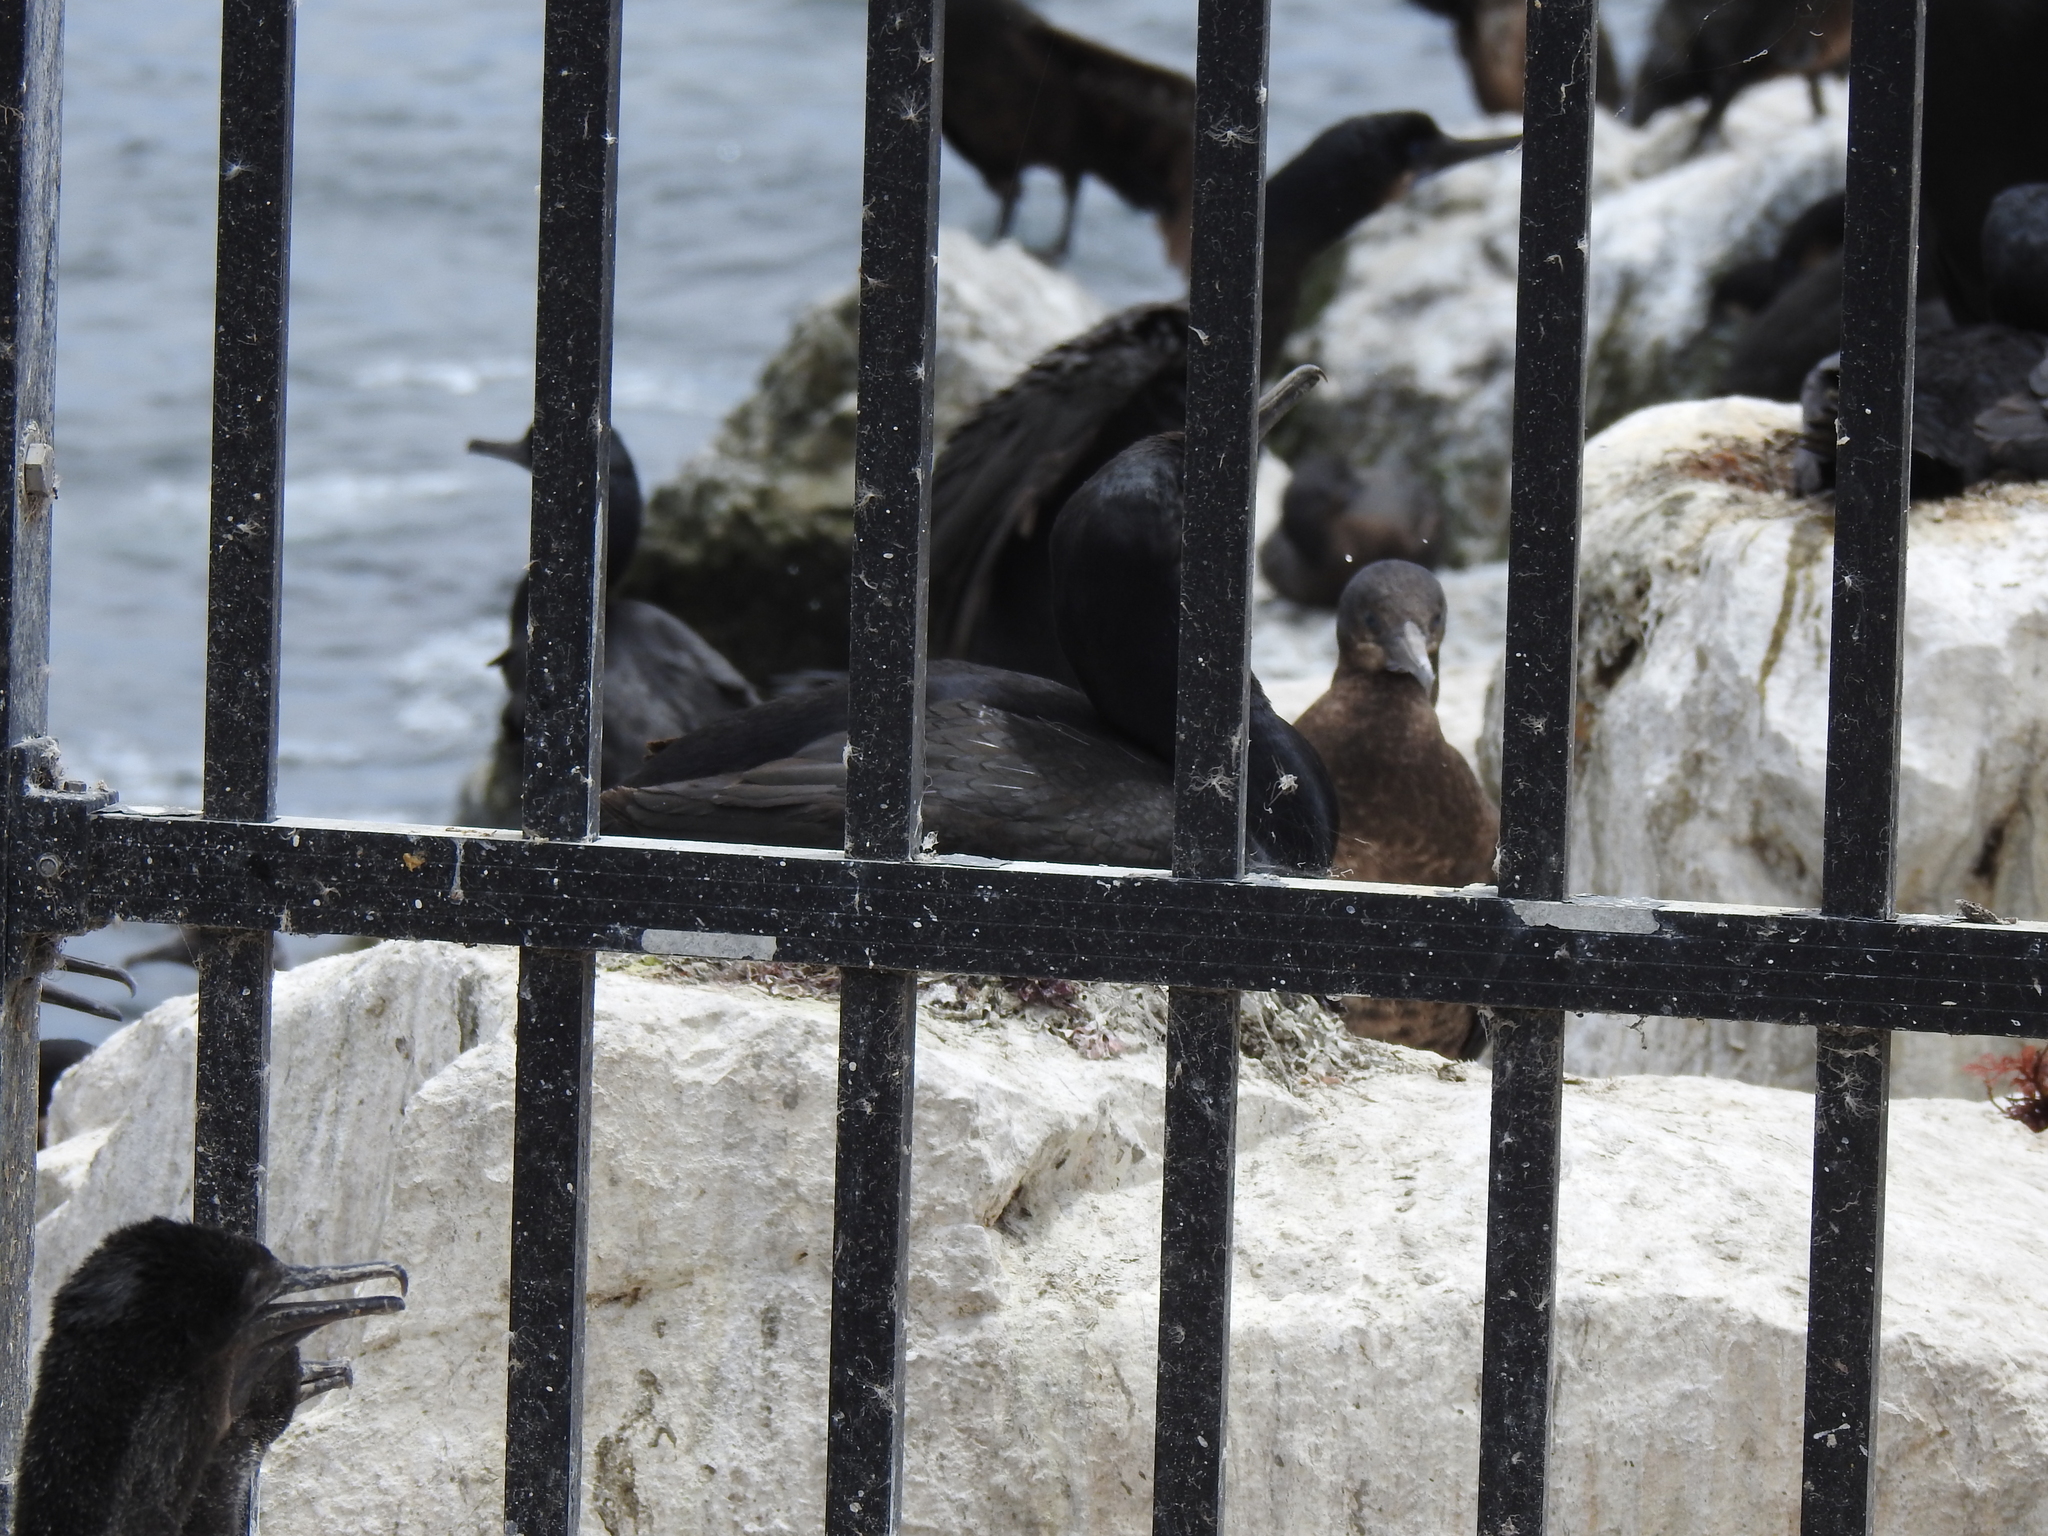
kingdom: Animalia
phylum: Chordata
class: Aves
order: Suliformes
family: Phalacrocoracidae
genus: Urile
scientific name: Urile penicillatus
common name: Brandt's cormorant
